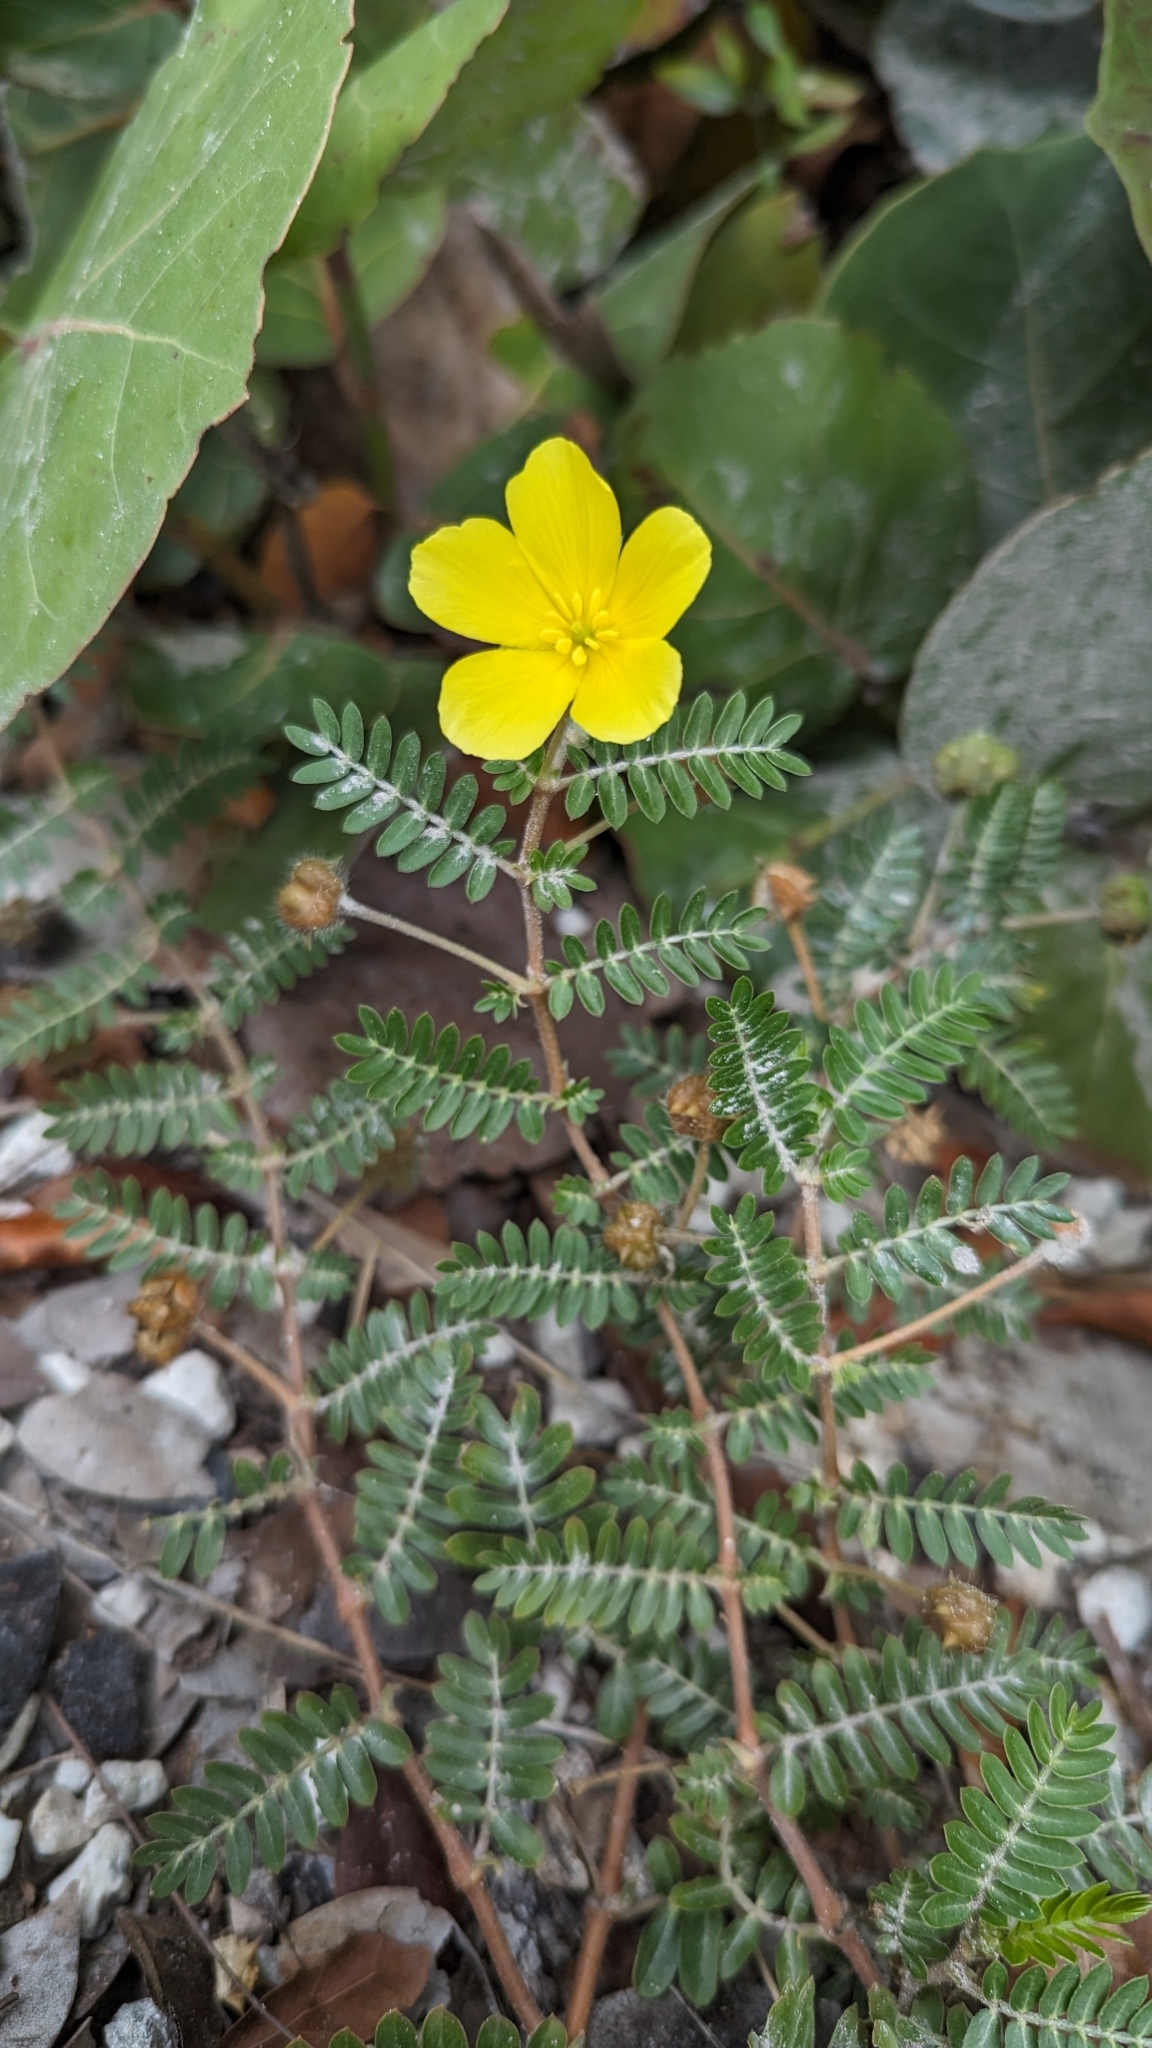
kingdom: Plantae
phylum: Tracheophyta
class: Magnoliopsida
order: Zygophyllales
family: Zygophyllaceae
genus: Tribulus
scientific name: Tribulus cistoides
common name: Jamaican feverplant
